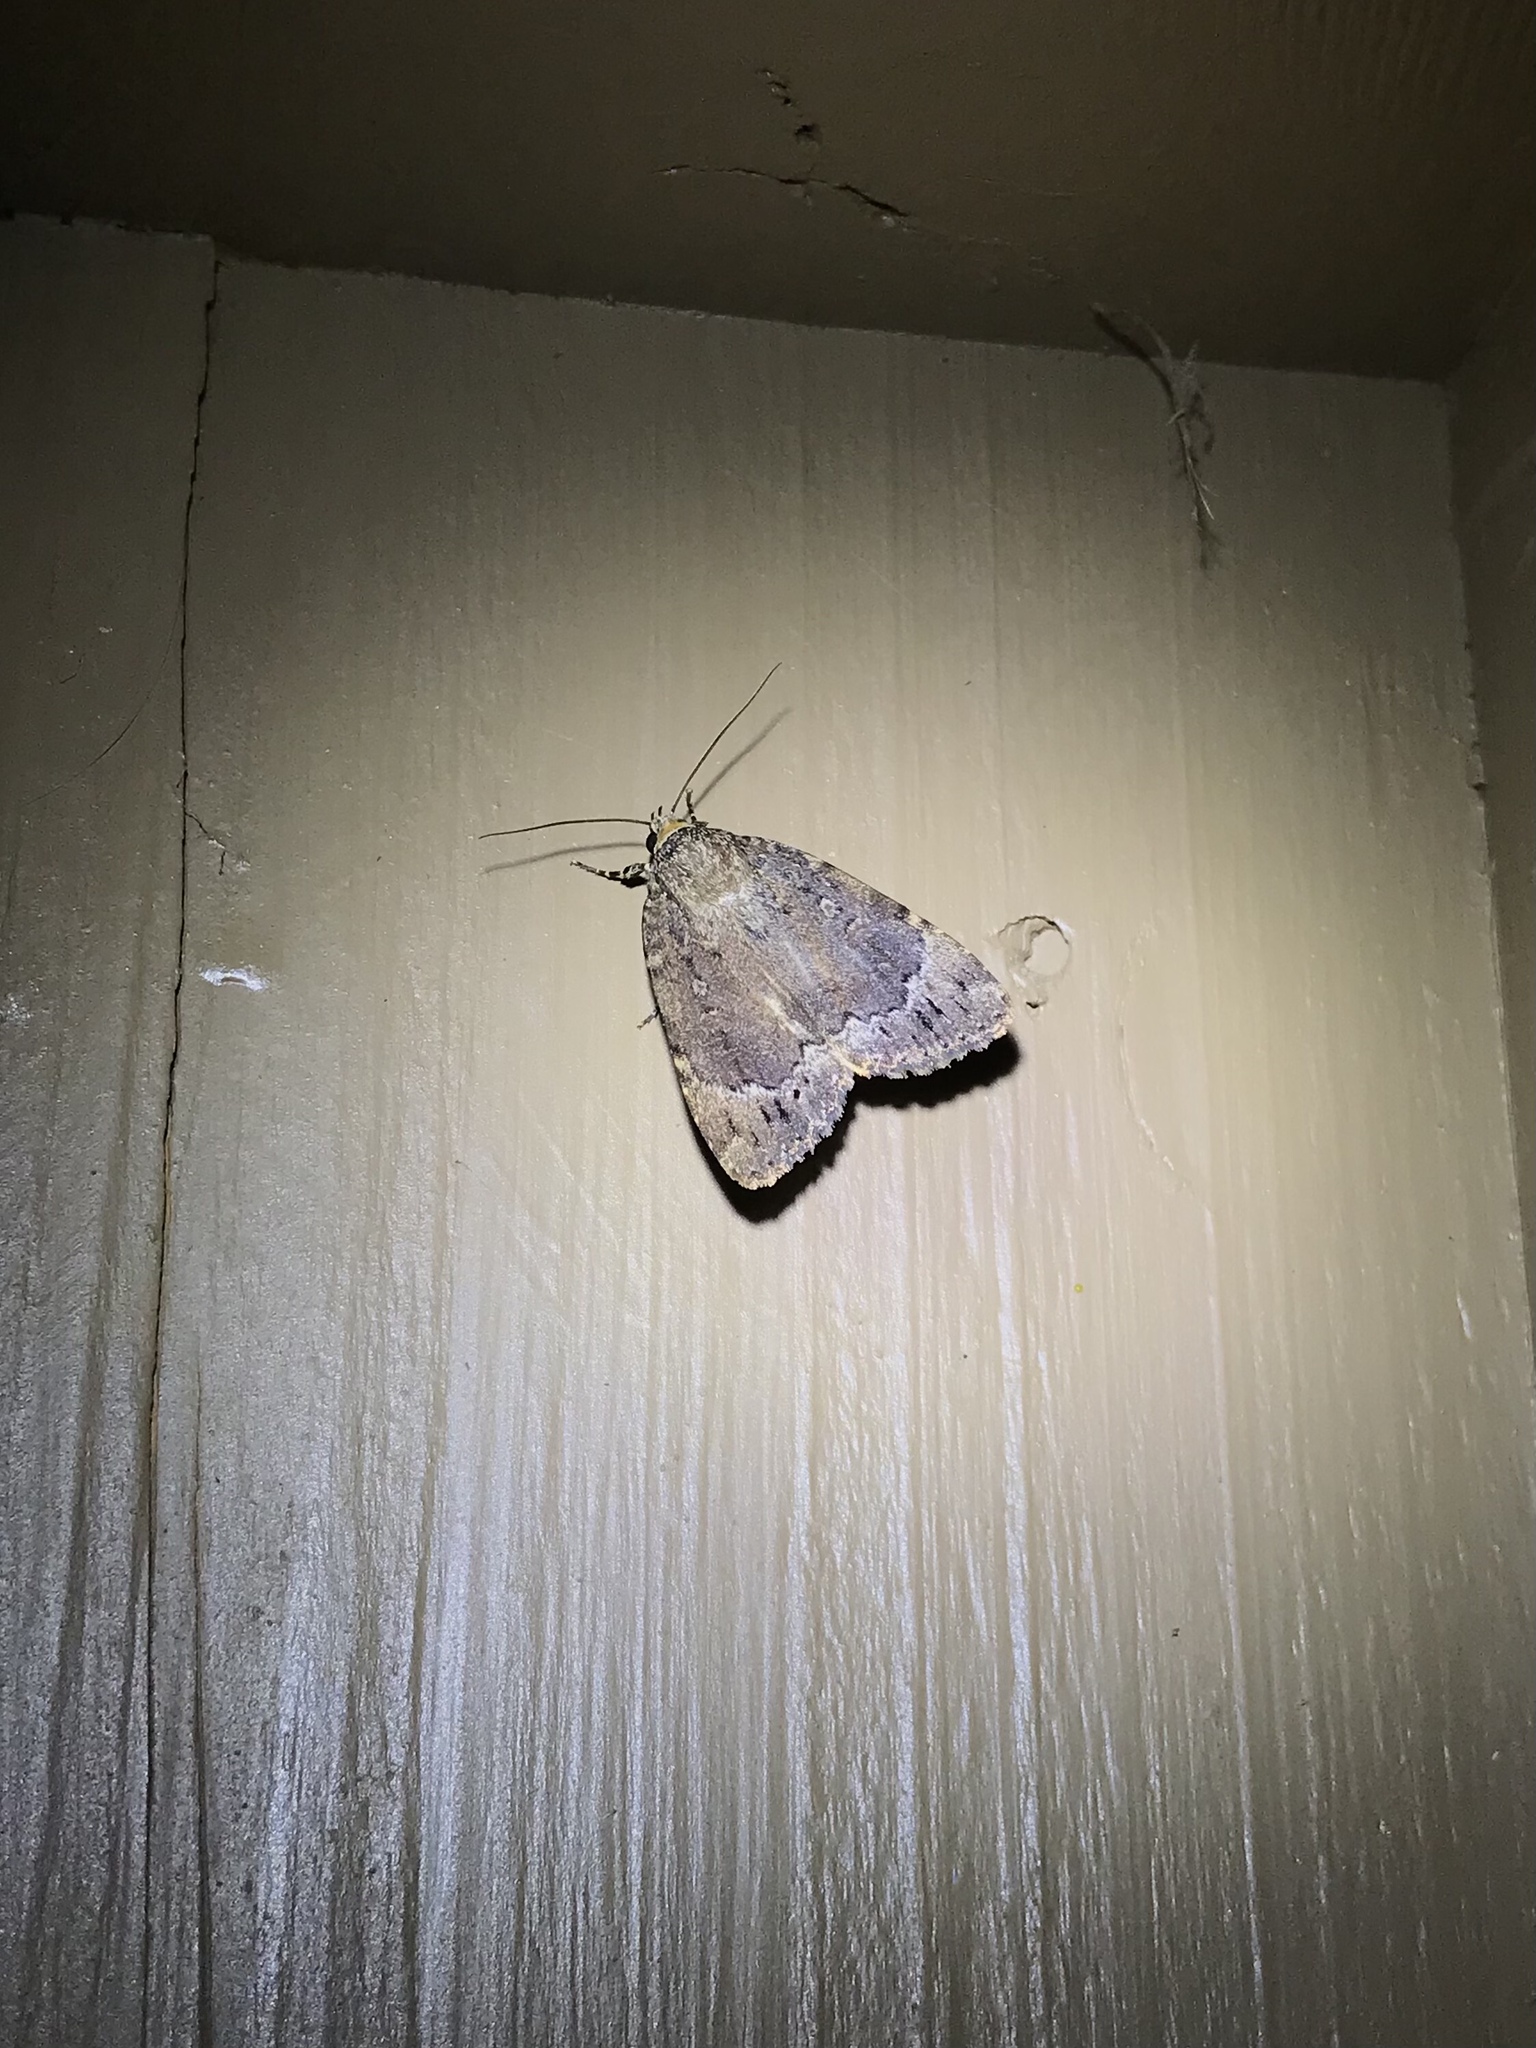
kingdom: Animalia
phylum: Arthropoda
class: Insecta
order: Lepidoptera
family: Noctuidae
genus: Amphipyra
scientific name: Amphipyra pyramidoides
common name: American copper underwing
